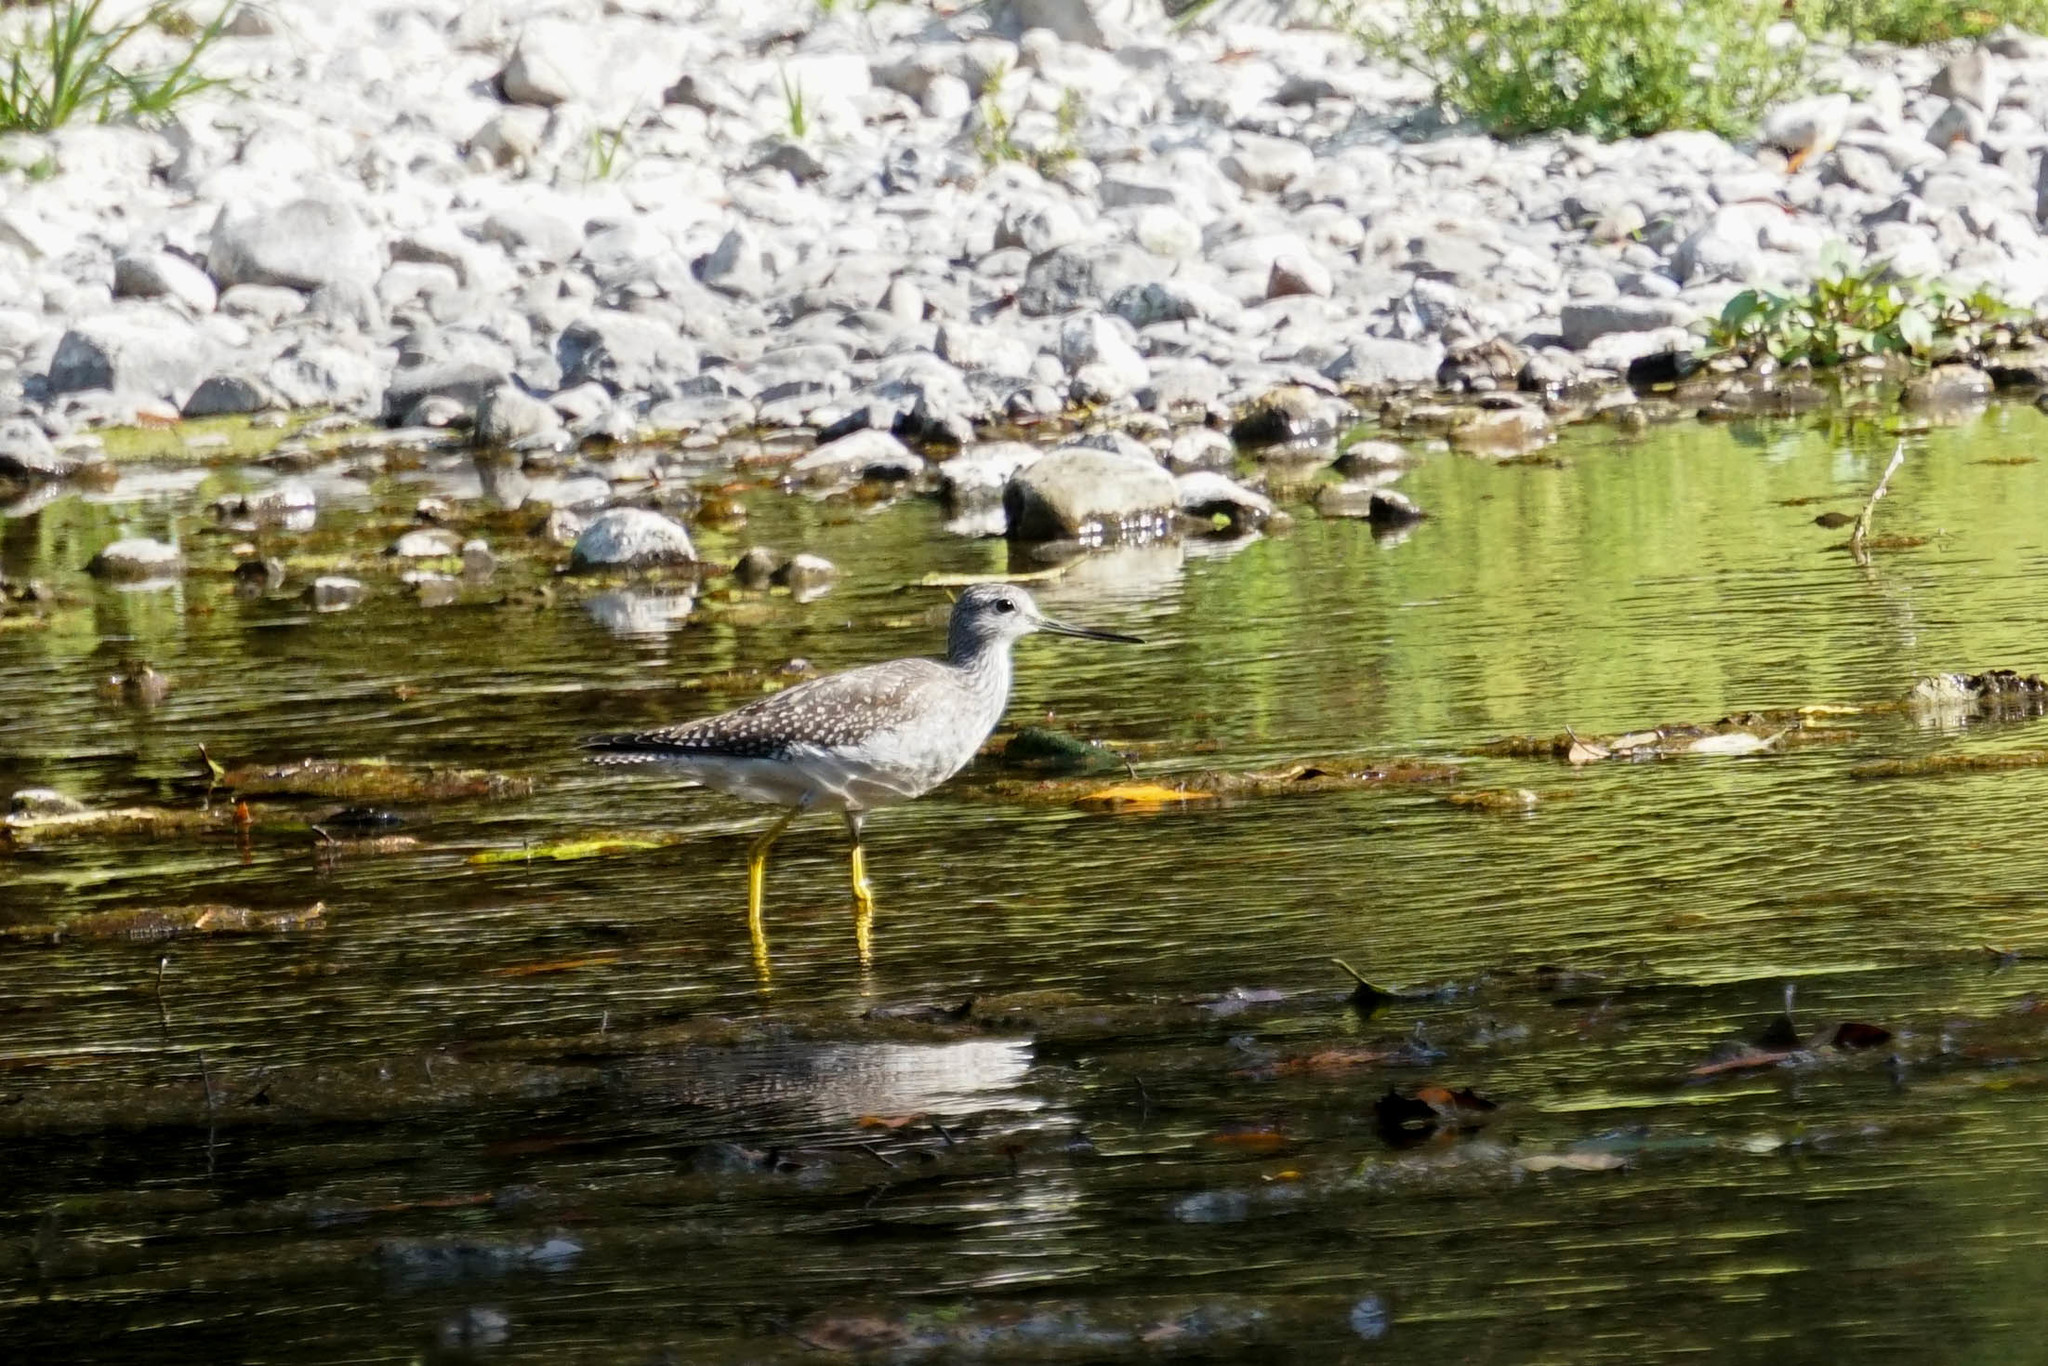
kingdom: Animalia
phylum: Chordata
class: Aves
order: Charadriiformes
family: Scolopacidae
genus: Tringa
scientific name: Tringa melanoleuca
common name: Greater yellowlegs
